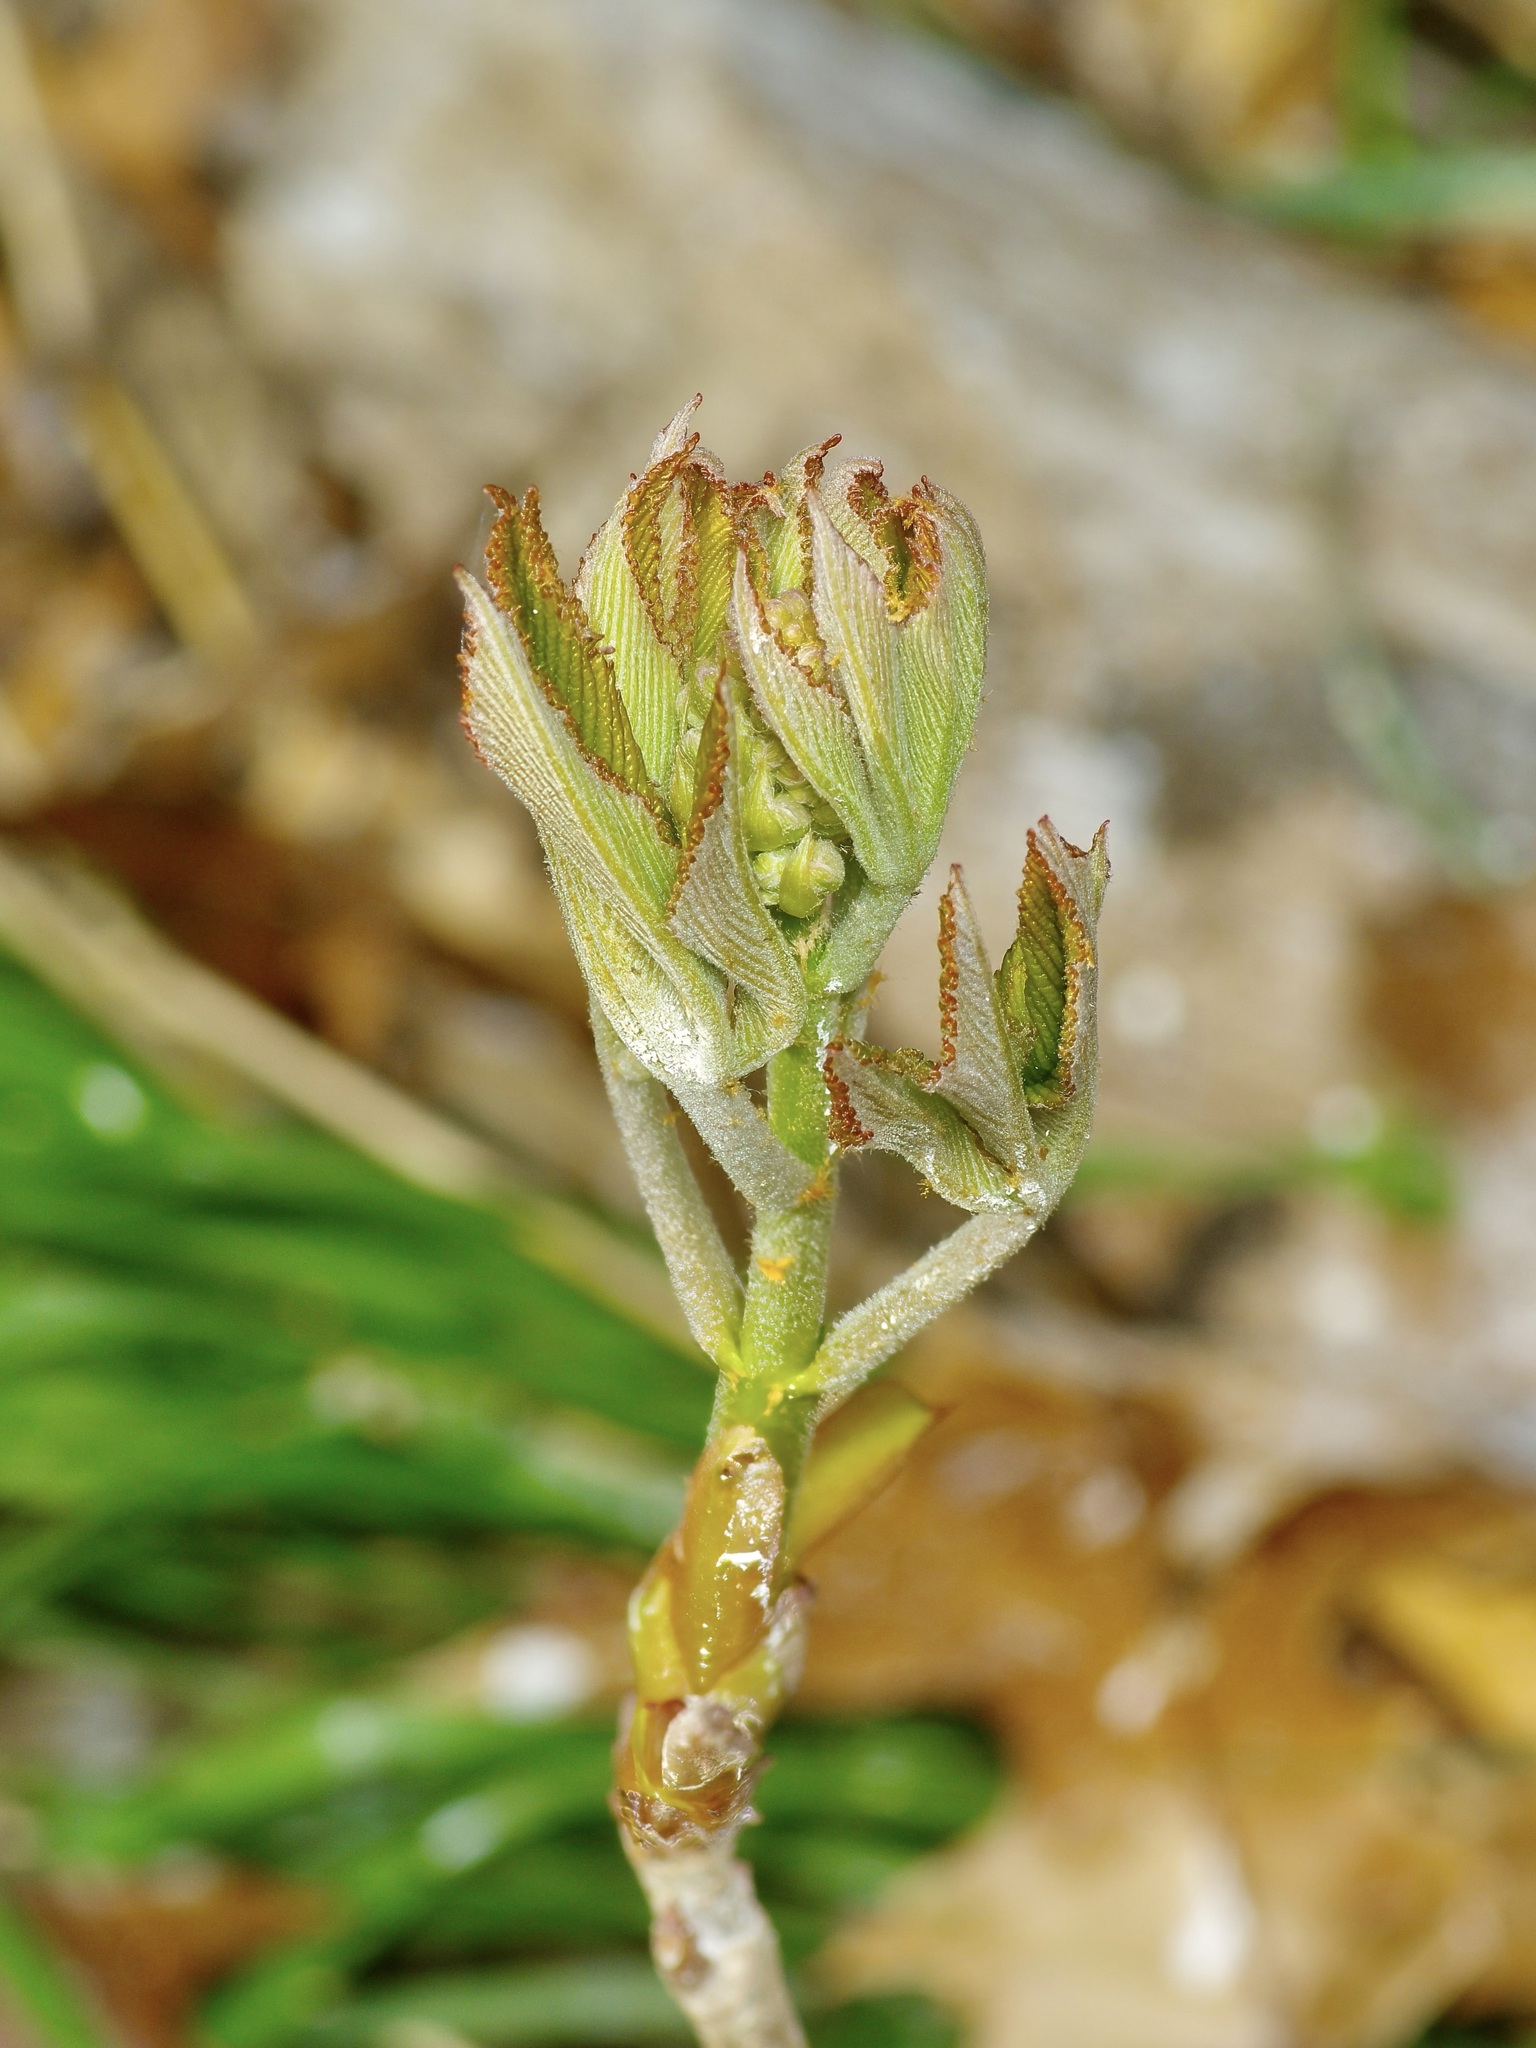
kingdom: Plantae
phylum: Tracheophyta
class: Magnoliopsida
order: Sapindales
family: Sapindaceae
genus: Aesculus
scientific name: Aesculus pavia
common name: Red buckeye
